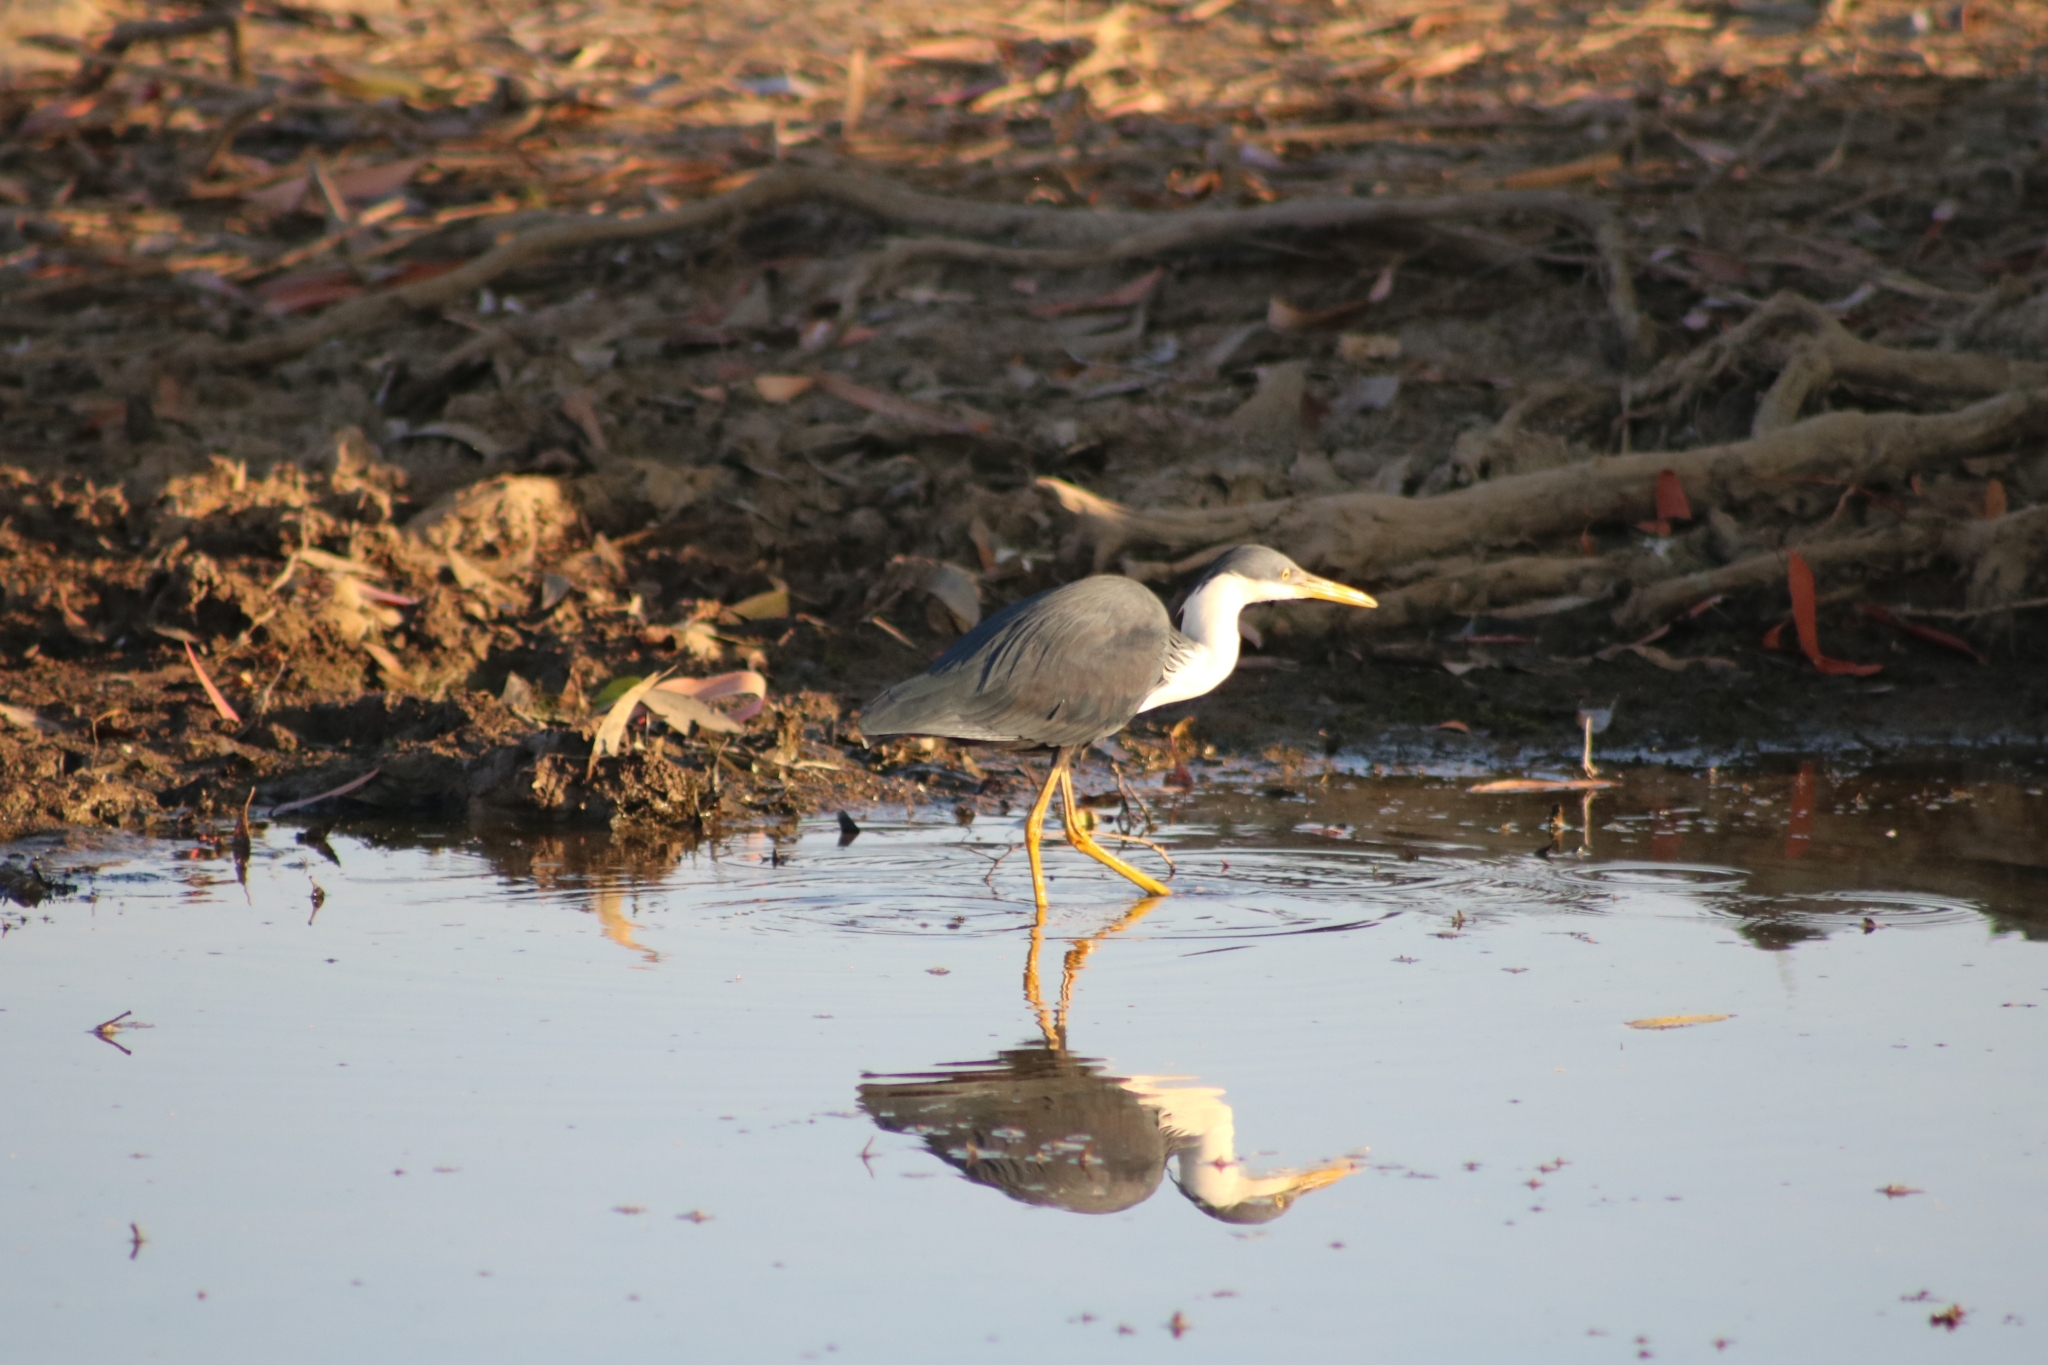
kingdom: Animalia
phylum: Chordata
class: Aves
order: Pelecaniformes
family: Ardeidae
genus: Egretta
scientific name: Egretta picata
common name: Pied heron
